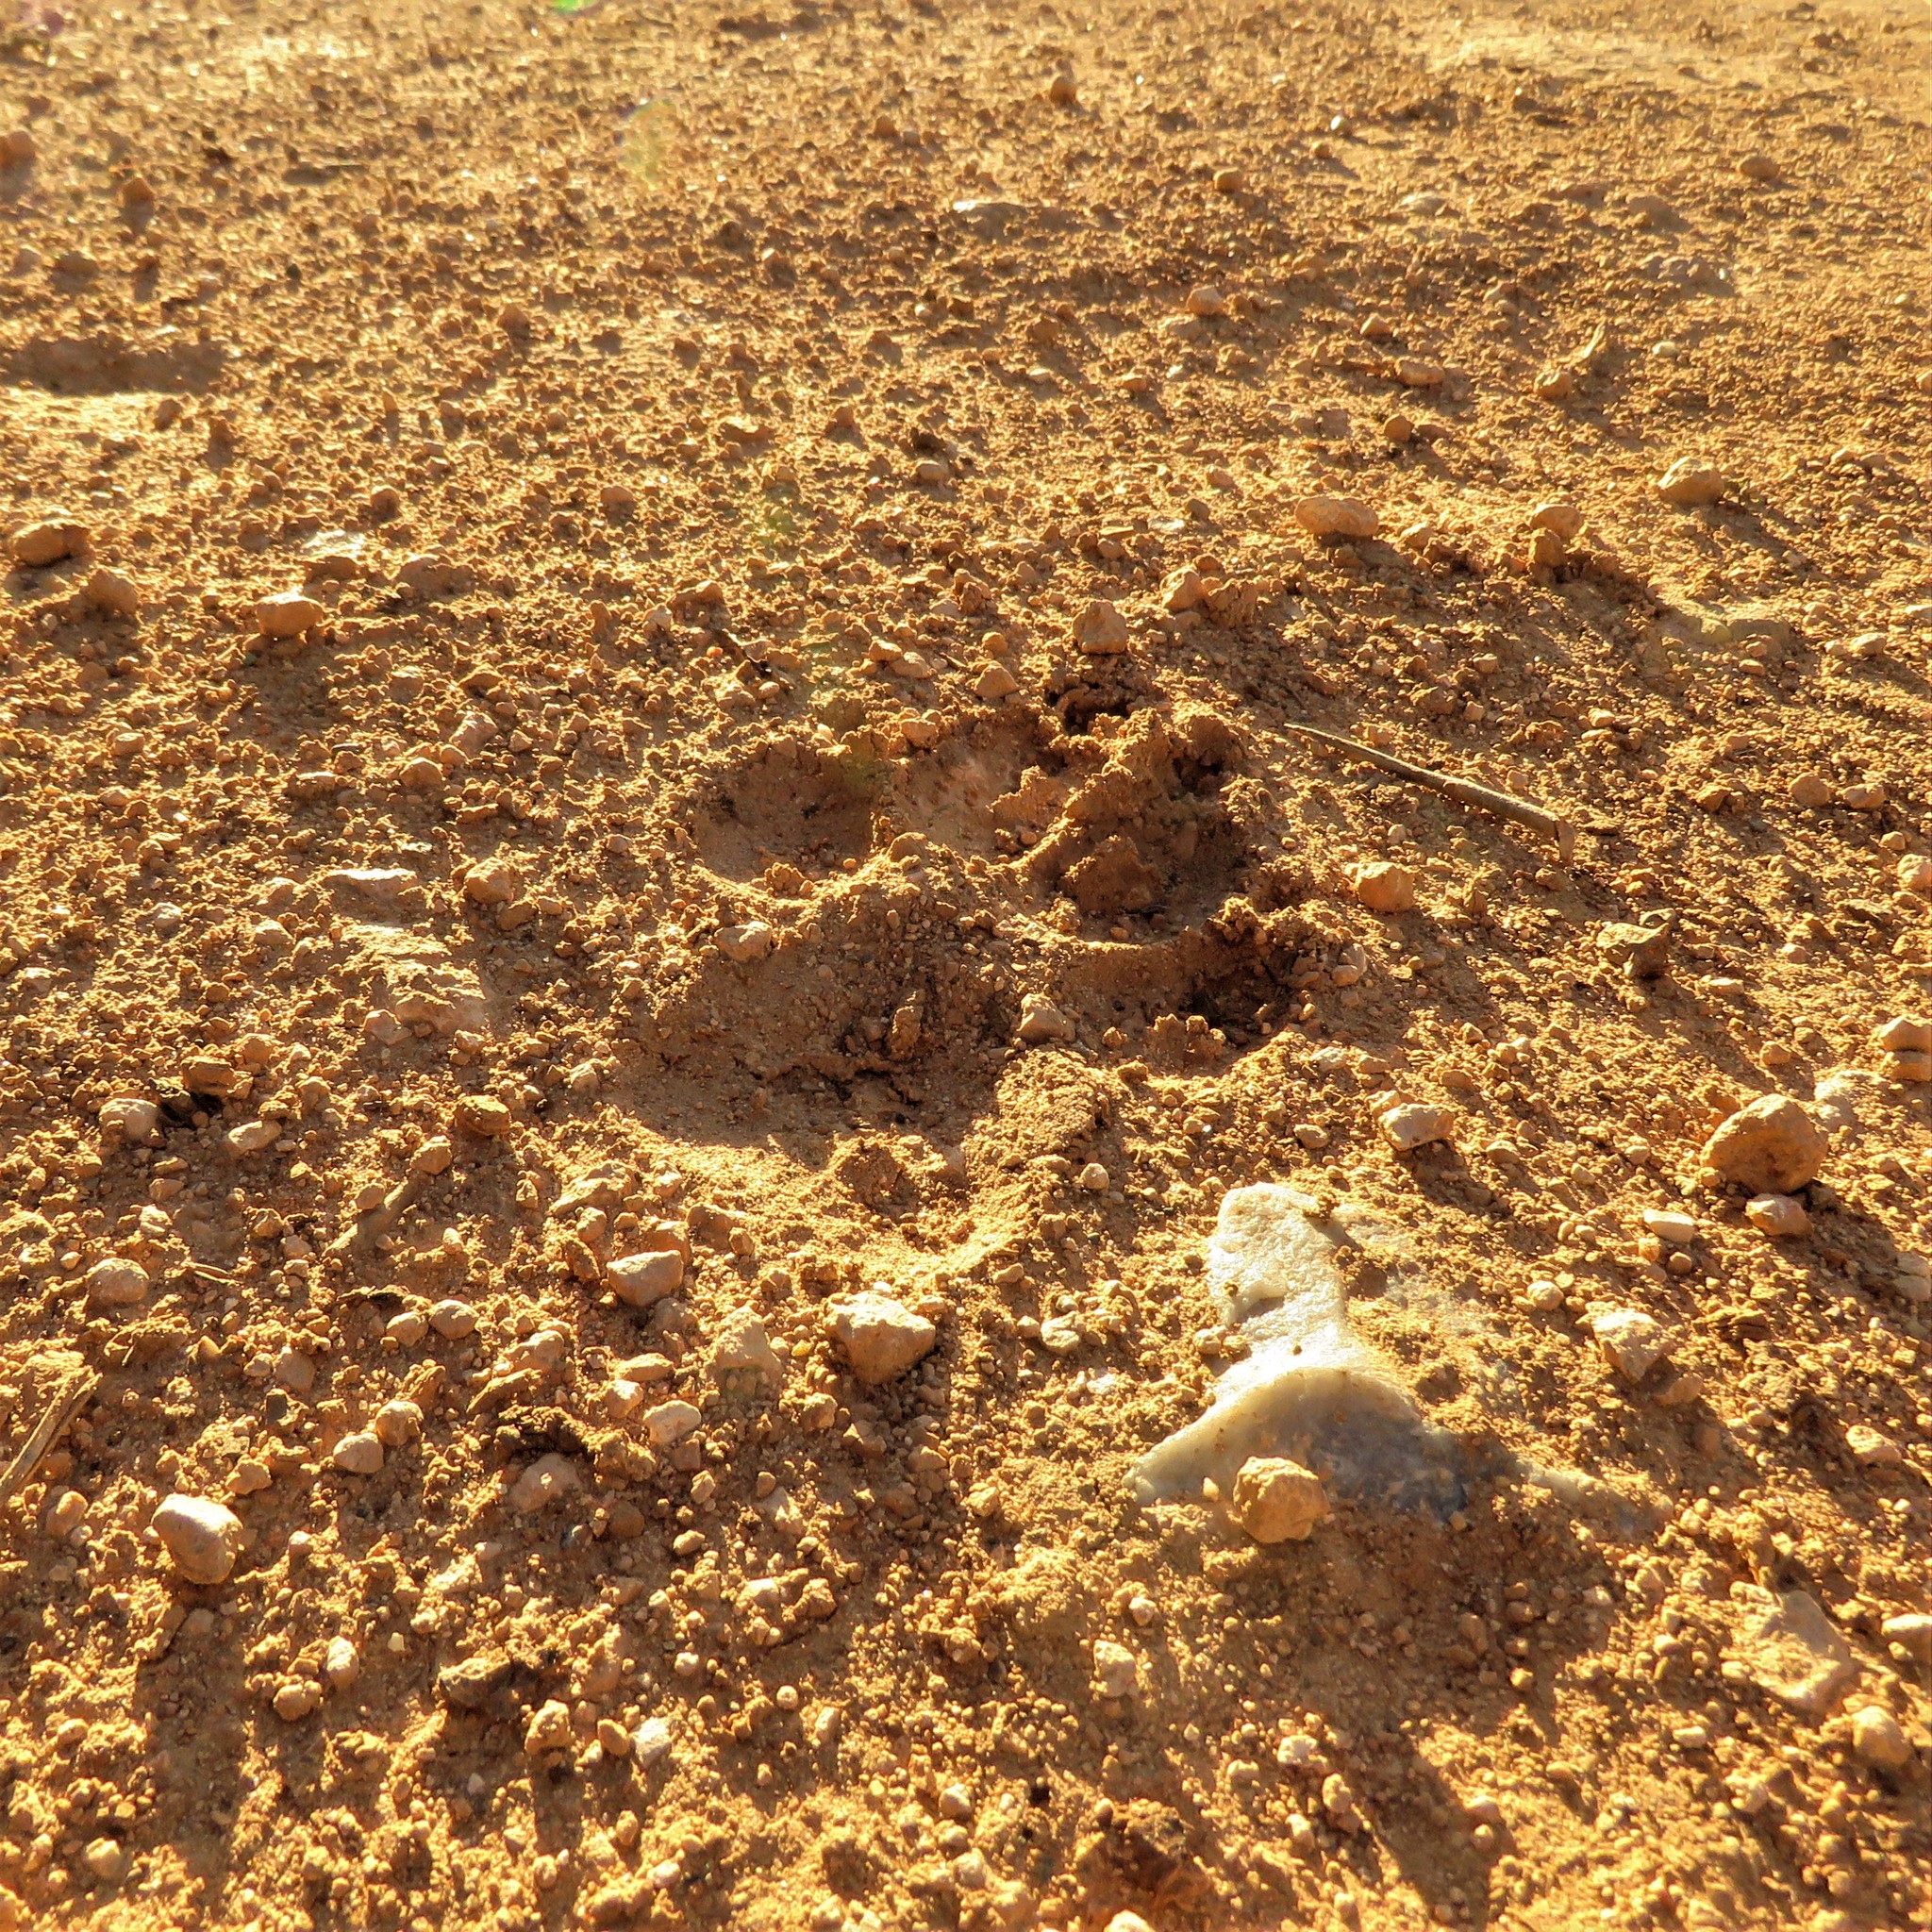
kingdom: Animalia
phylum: Chordata
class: Mammalia
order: Carnivora
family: Hyaenidae
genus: Crocuta
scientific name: Crocuta crocuta
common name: Spotted hyaena
